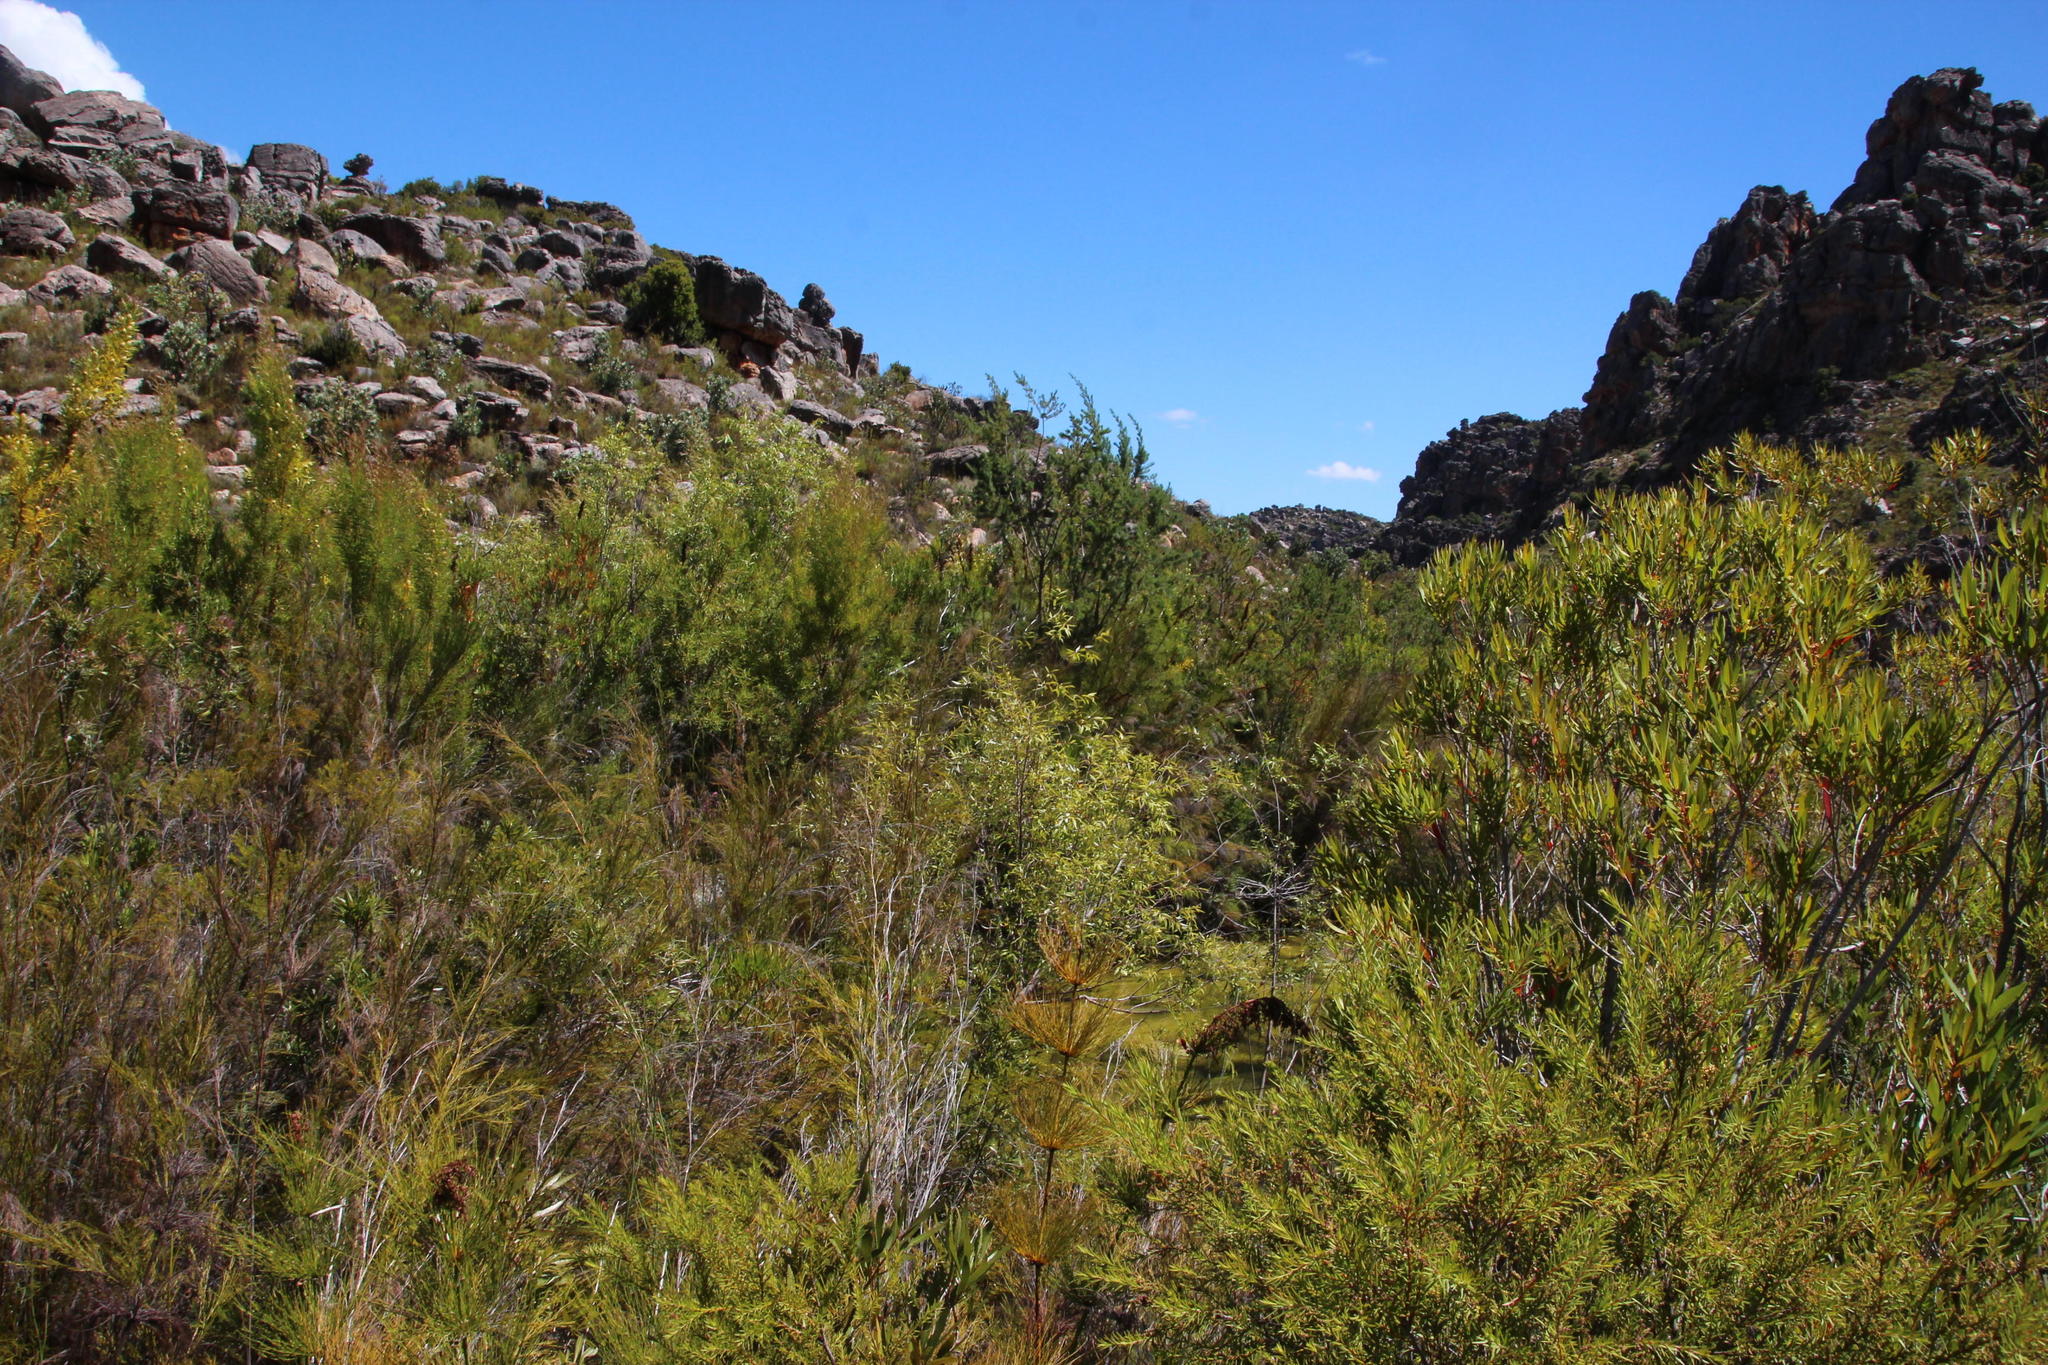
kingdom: Plantae
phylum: Tracheophyta
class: Magnoliopsida
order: Malpighiales
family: Salicaceae
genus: Salix
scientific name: Salix mucronata
